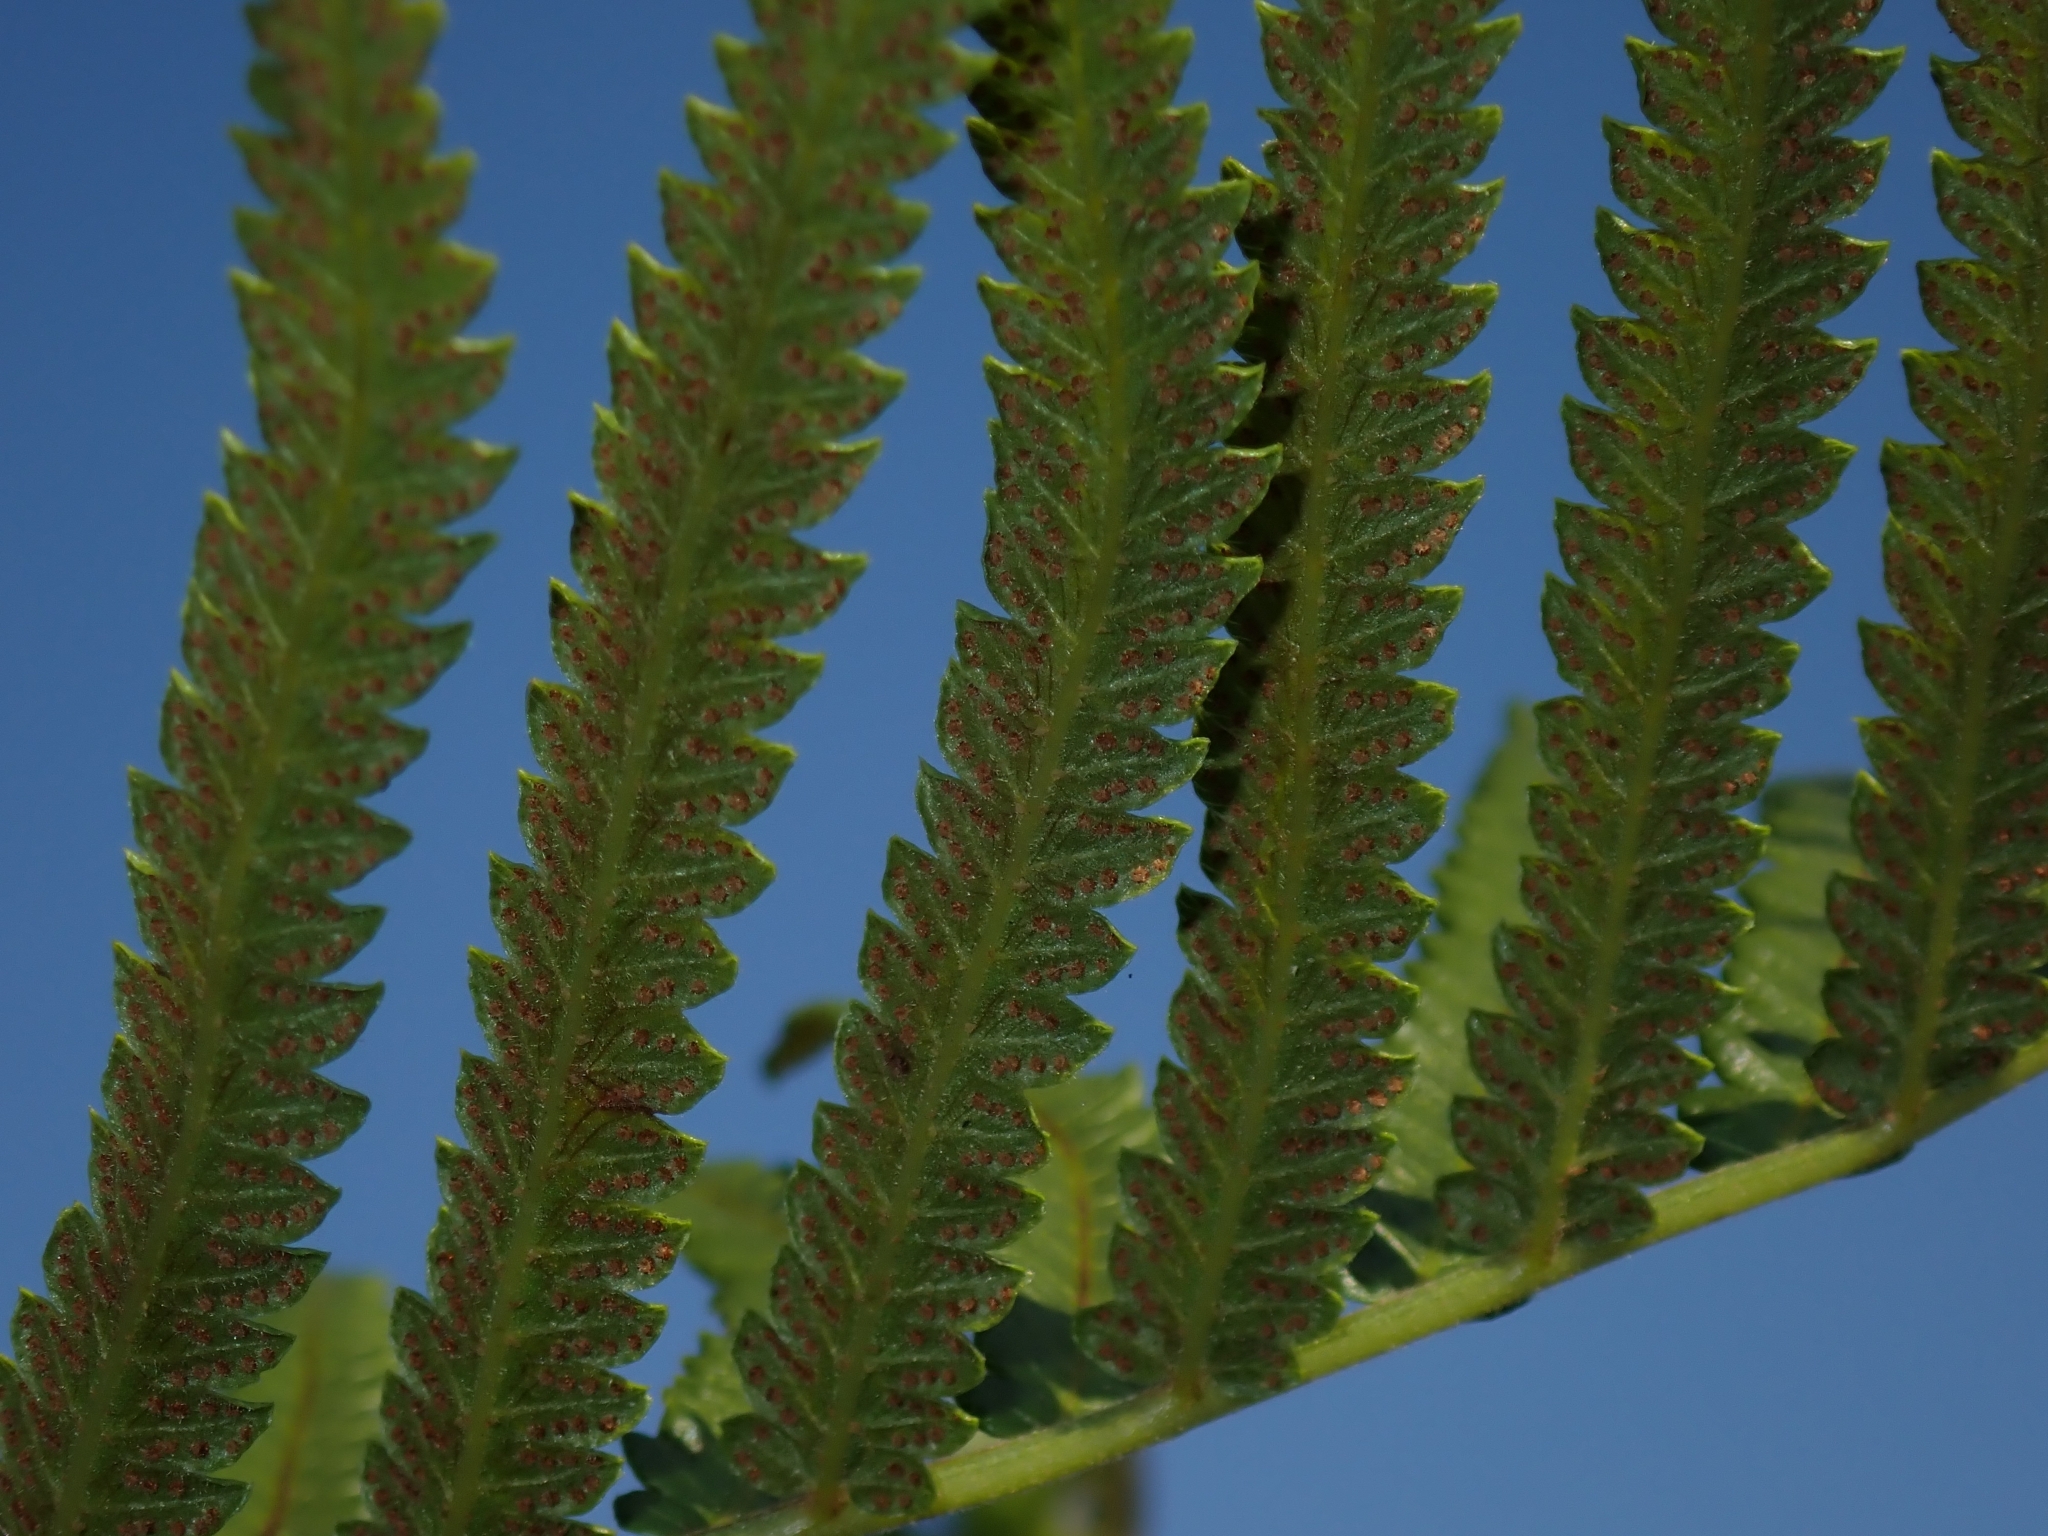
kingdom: Plantae
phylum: Tracheophyta
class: Polypodiopsida
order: Polypodiales
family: Thelypteridaceae
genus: Cyclosorus
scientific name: Cyclosorus interruptus
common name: Neke fern
